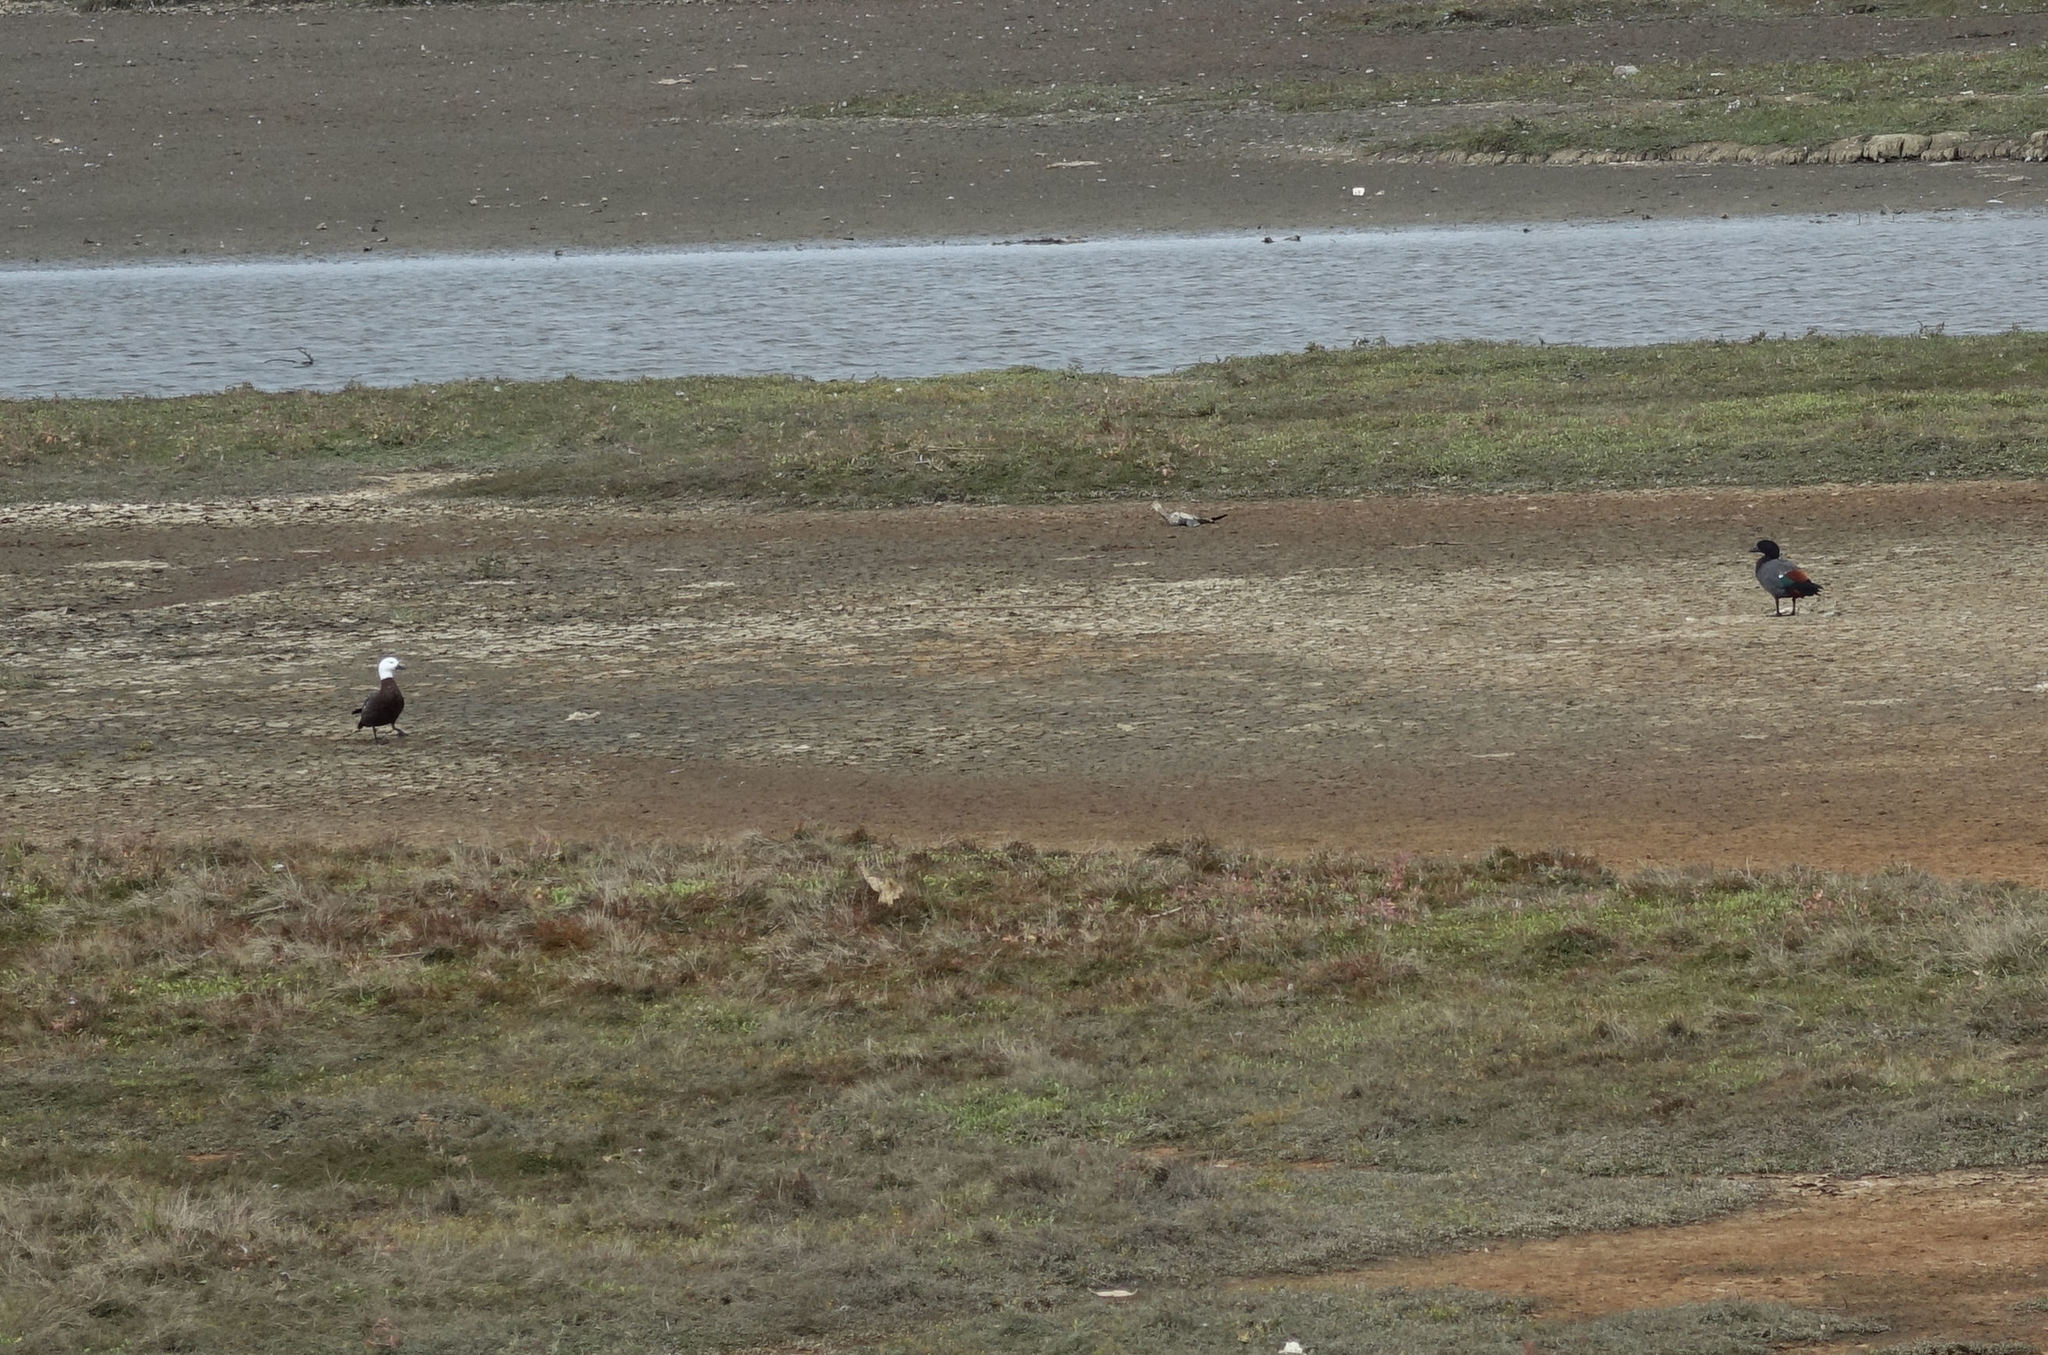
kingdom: Animalia
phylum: Chordata
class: Aves
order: Anseriformes
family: Anatidae
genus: Tadorna
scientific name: Tadorna variegata
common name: Paradise shelduck
